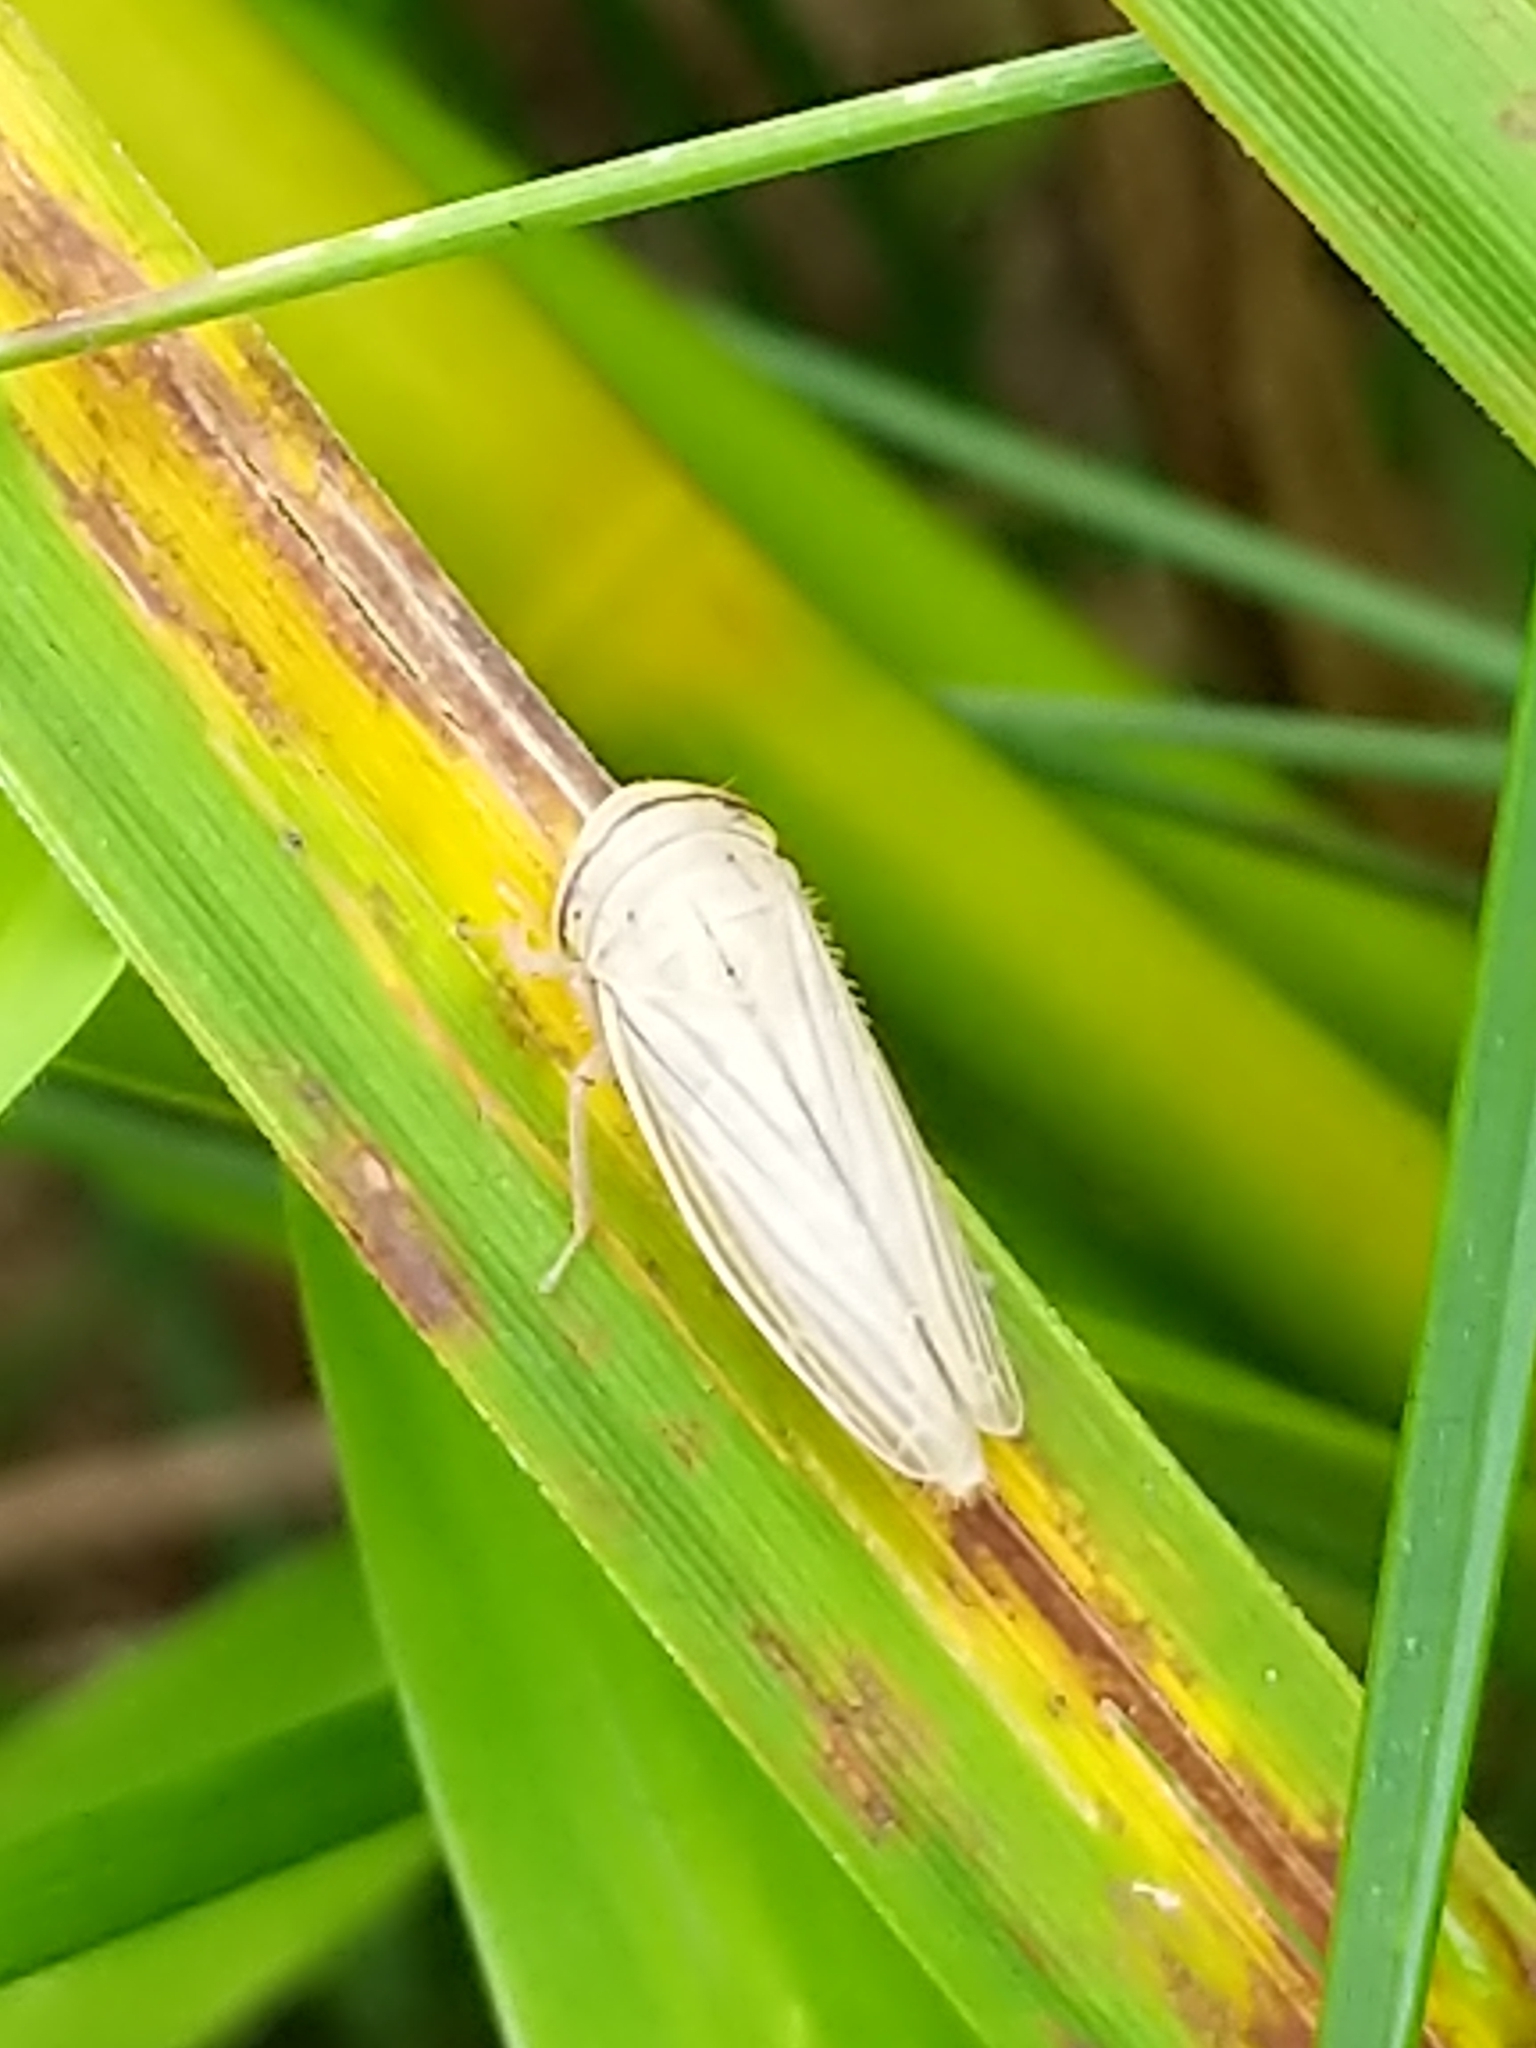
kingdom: Animalia
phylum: Arthropoda
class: Insecta
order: Hemiptera
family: Cicadellidae
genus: Athysanus
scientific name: Athysanus argentarius
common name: Silver leafhopper
